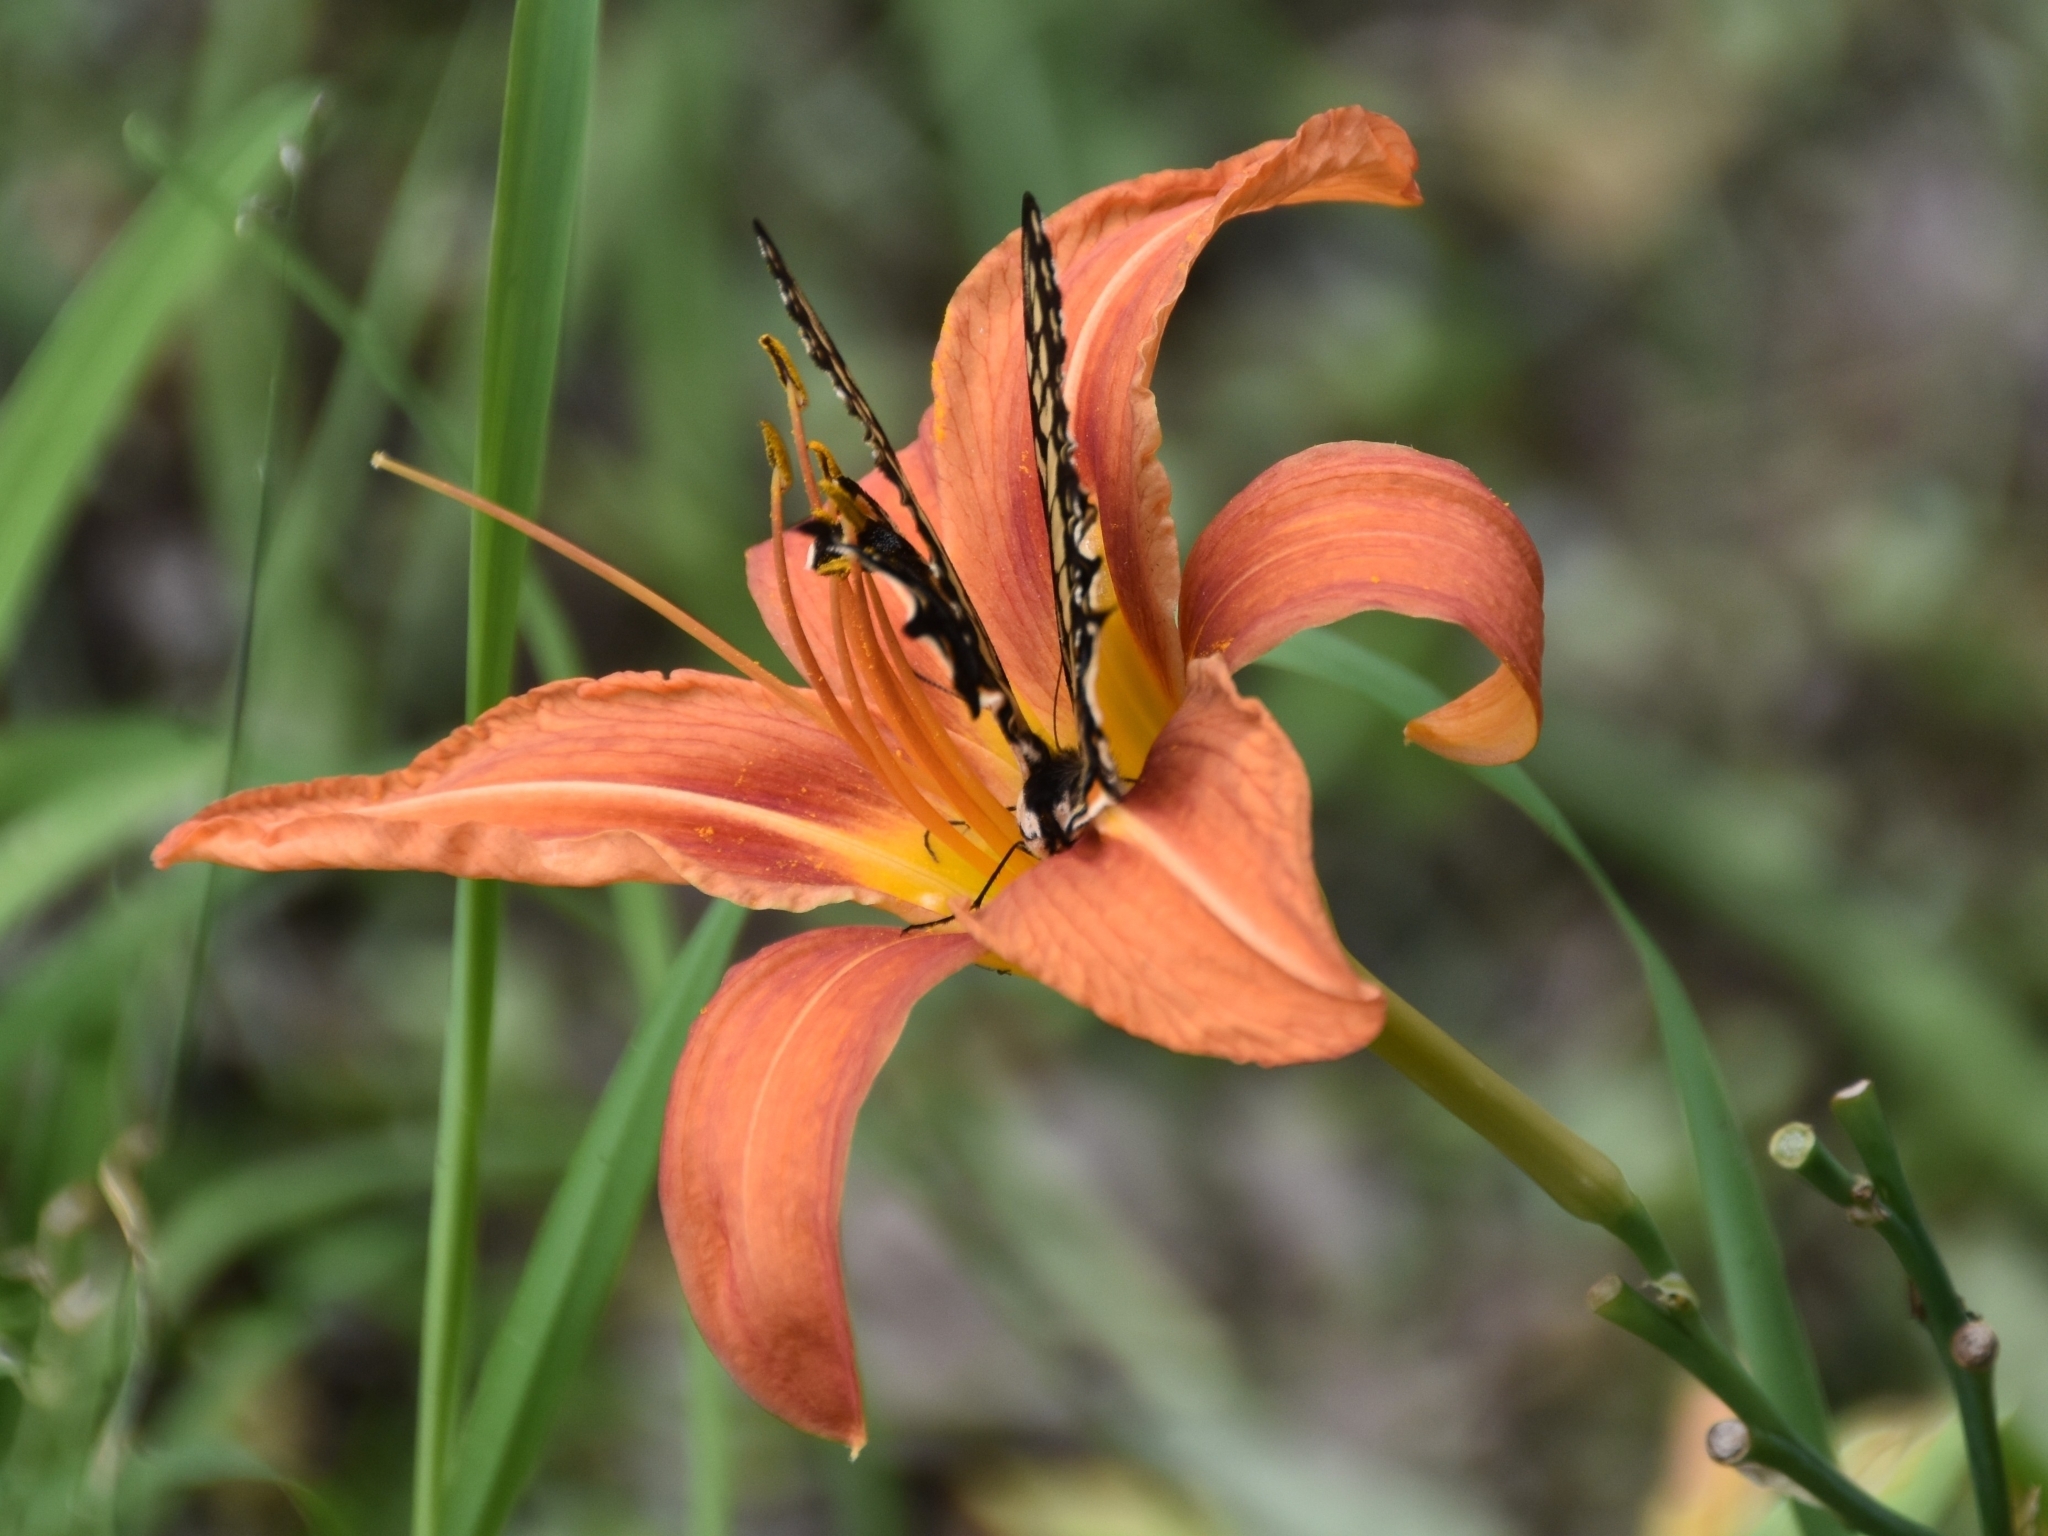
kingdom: Plantae
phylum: Tracheophyta
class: Liliopsida
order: Asparagales
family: Asphodelaceae
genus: Hemerocallis
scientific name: Hemerocallis fulva
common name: Orange day-lily
